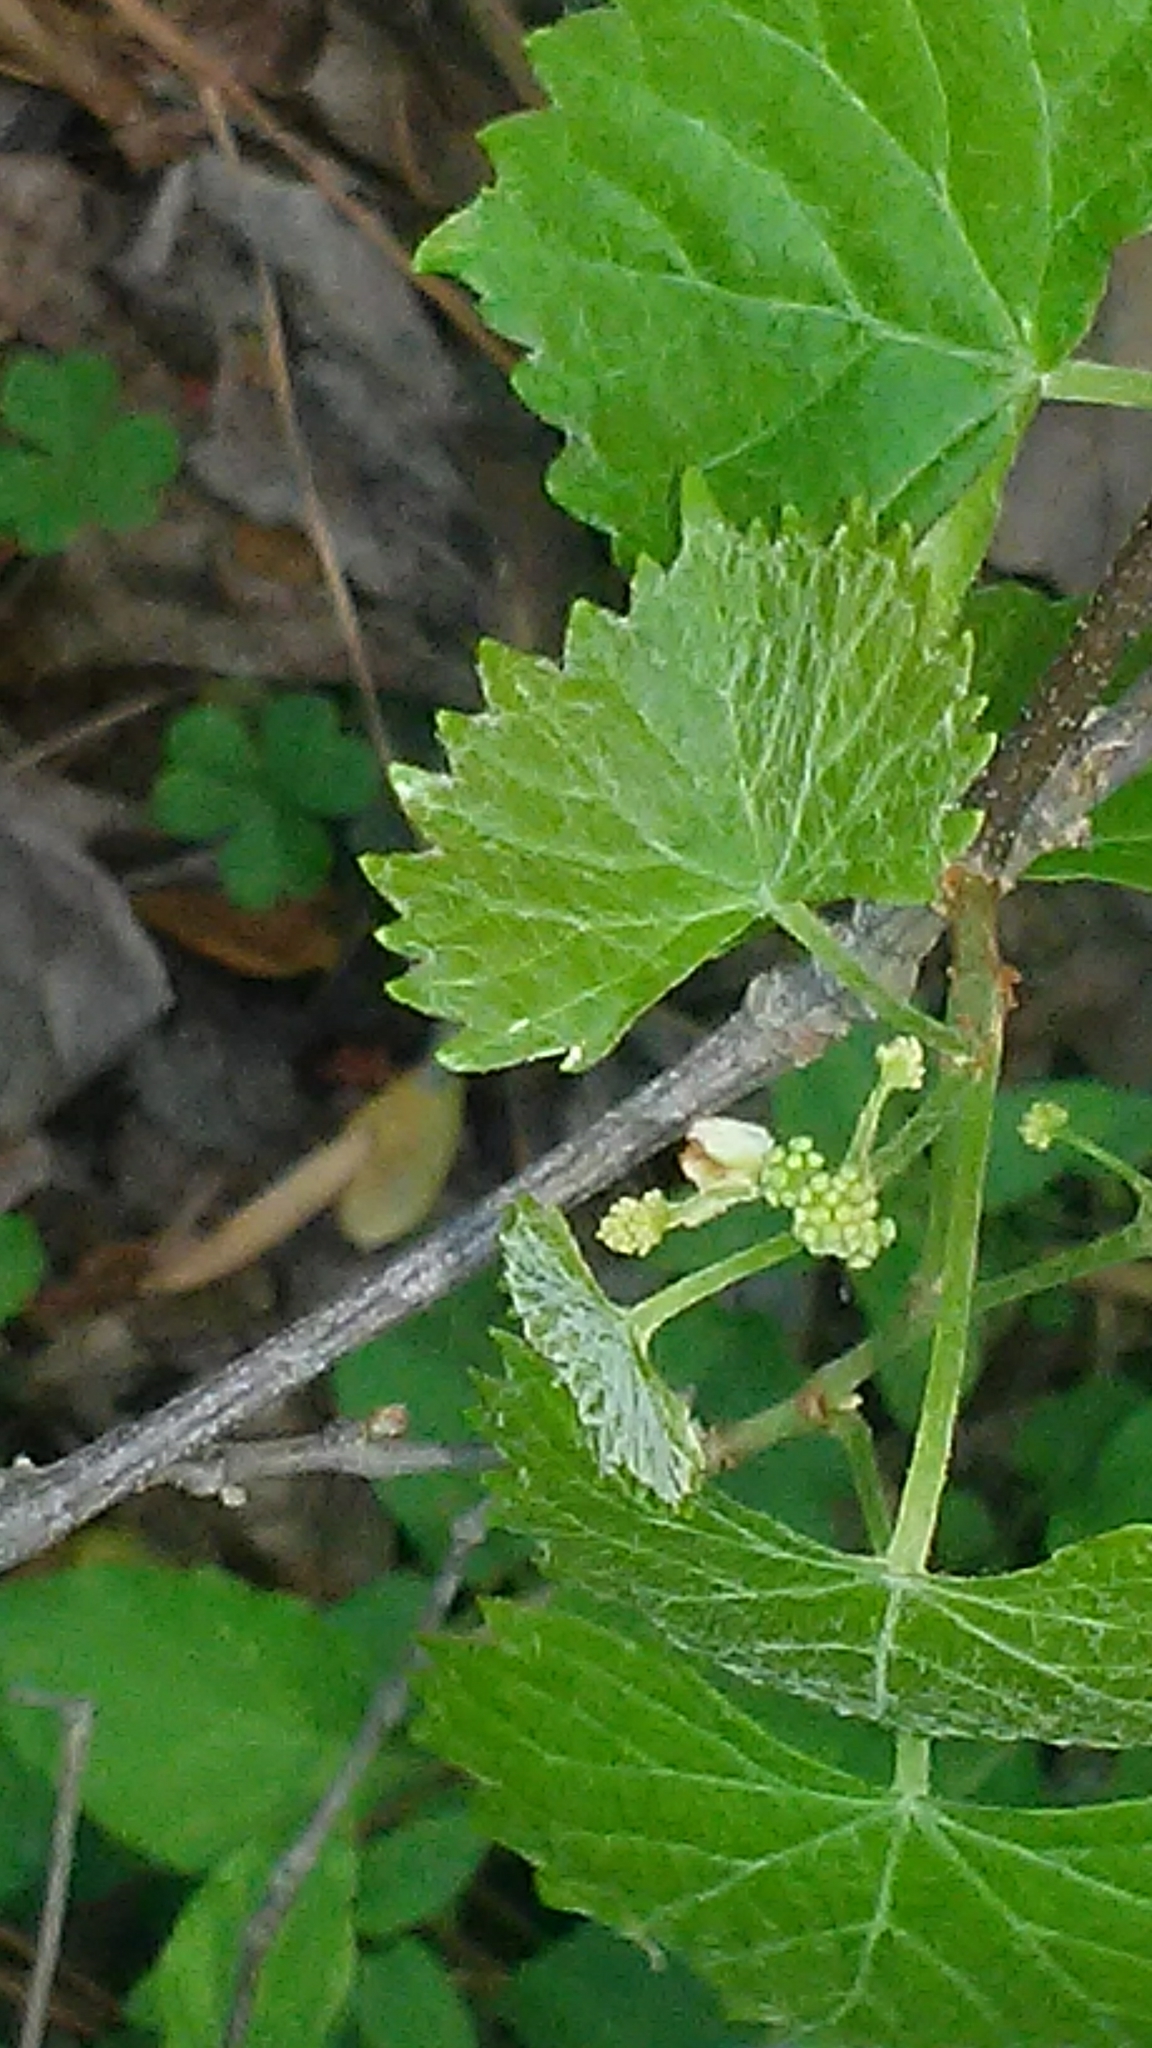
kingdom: Plantae
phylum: Tracheophyta
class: Magnoliopsida
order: Vitales
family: Vitaceae
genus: Vitis
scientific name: Vitis rotundifolia
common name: Muscadine grape
